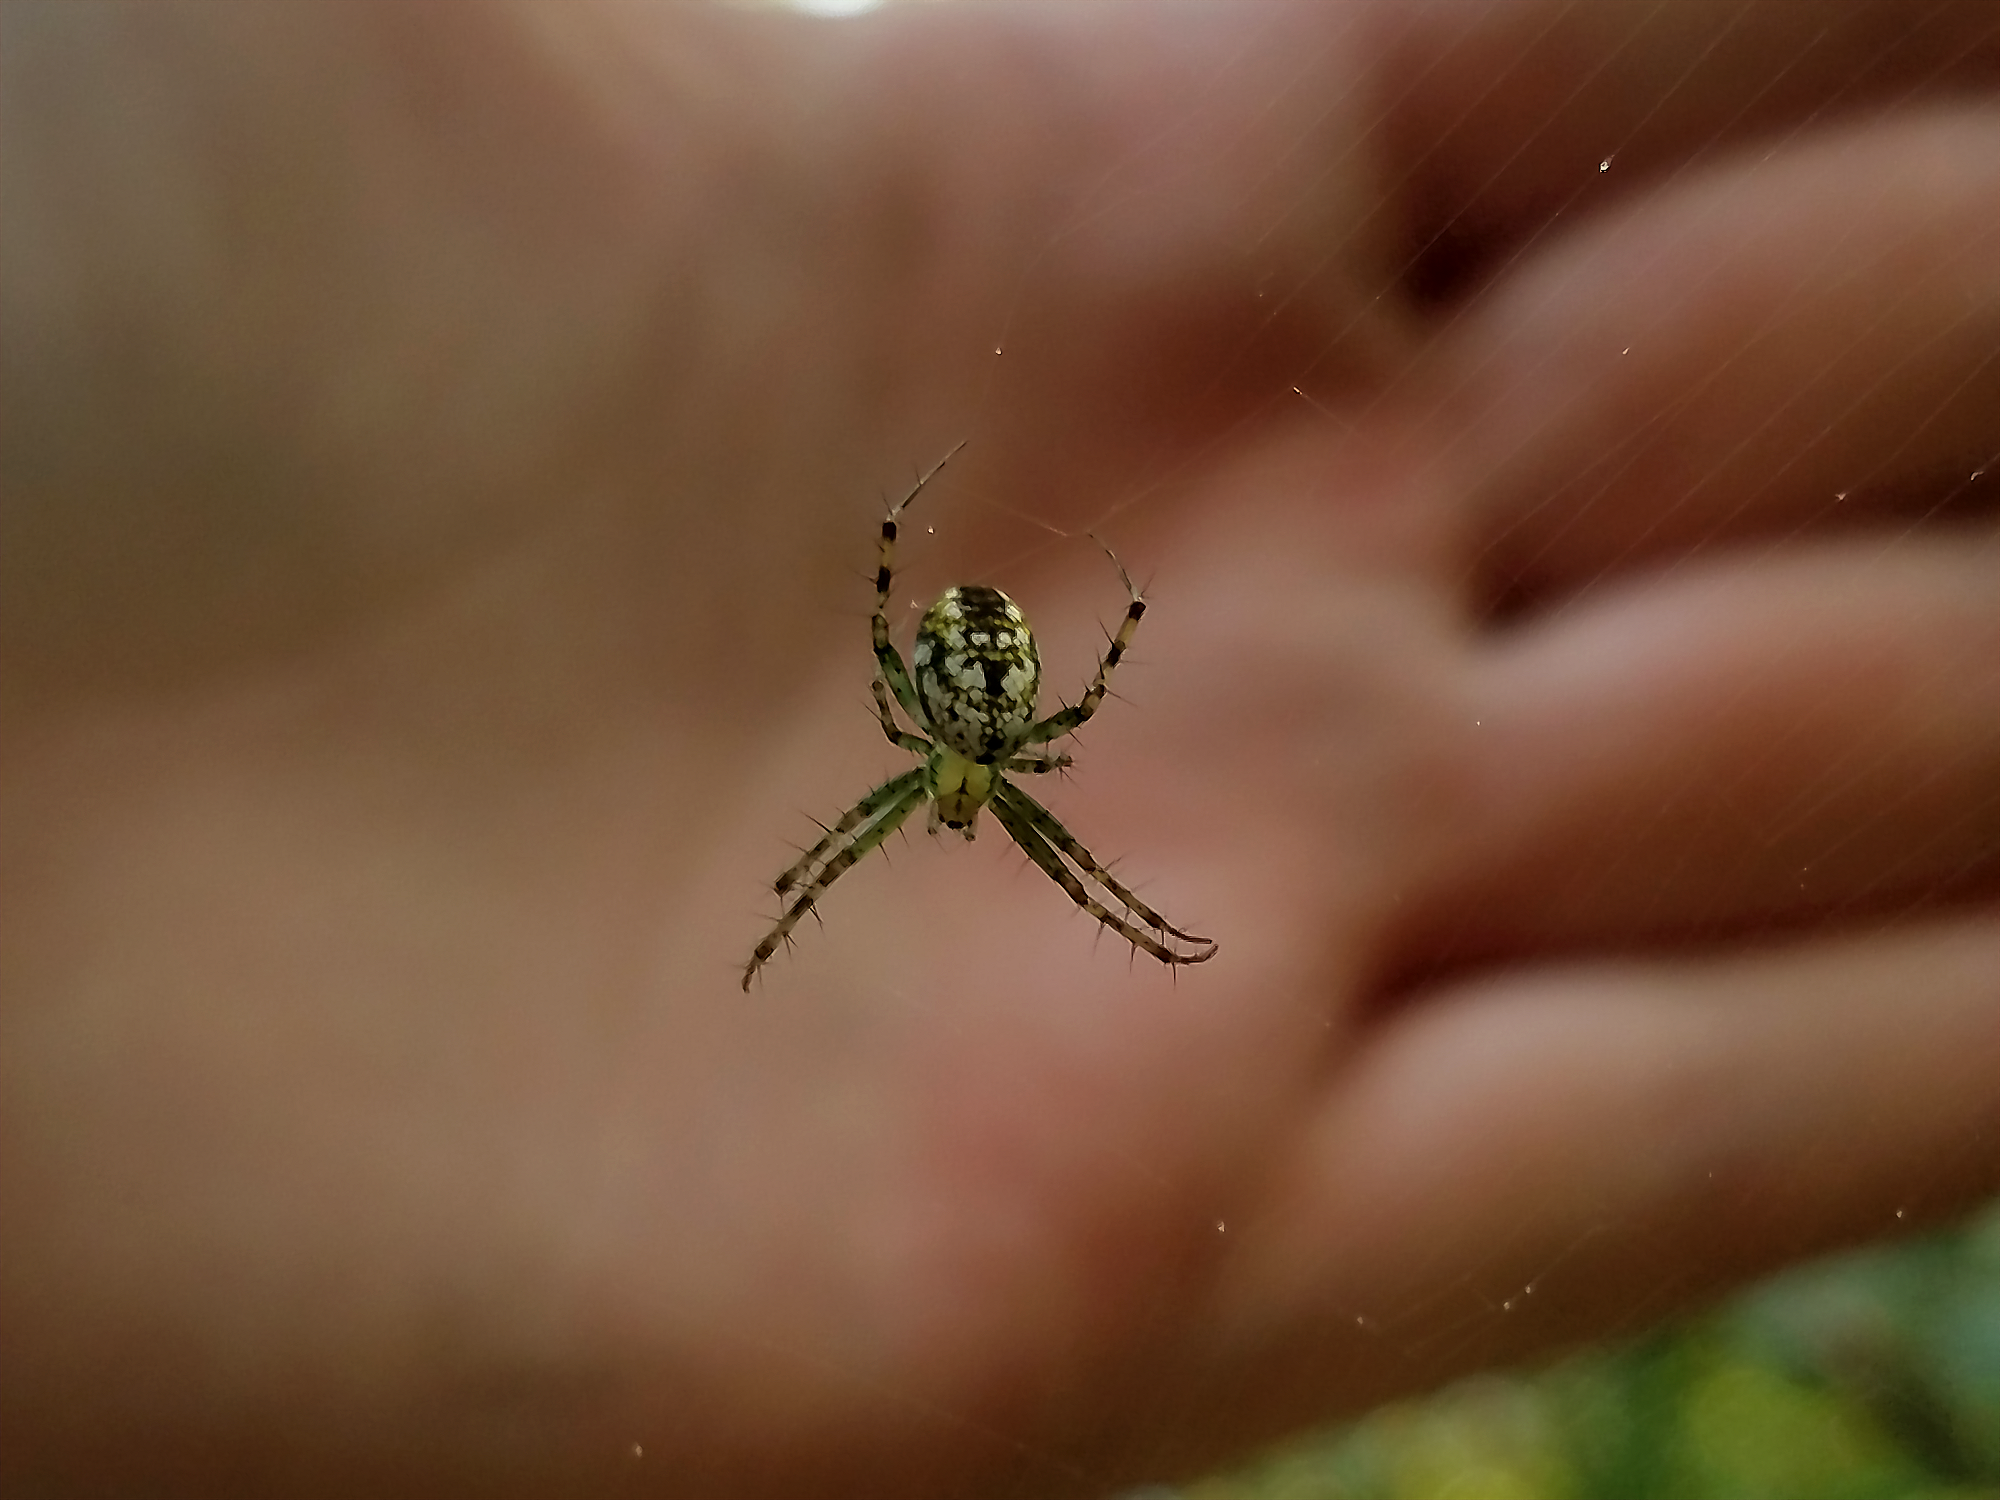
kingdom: Animalia
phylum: Arthropoda
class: Arachnida
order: Araneae
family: Araneidae
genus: Mangora
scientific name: Mangora placida
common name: Tuft-legged orbweaver
